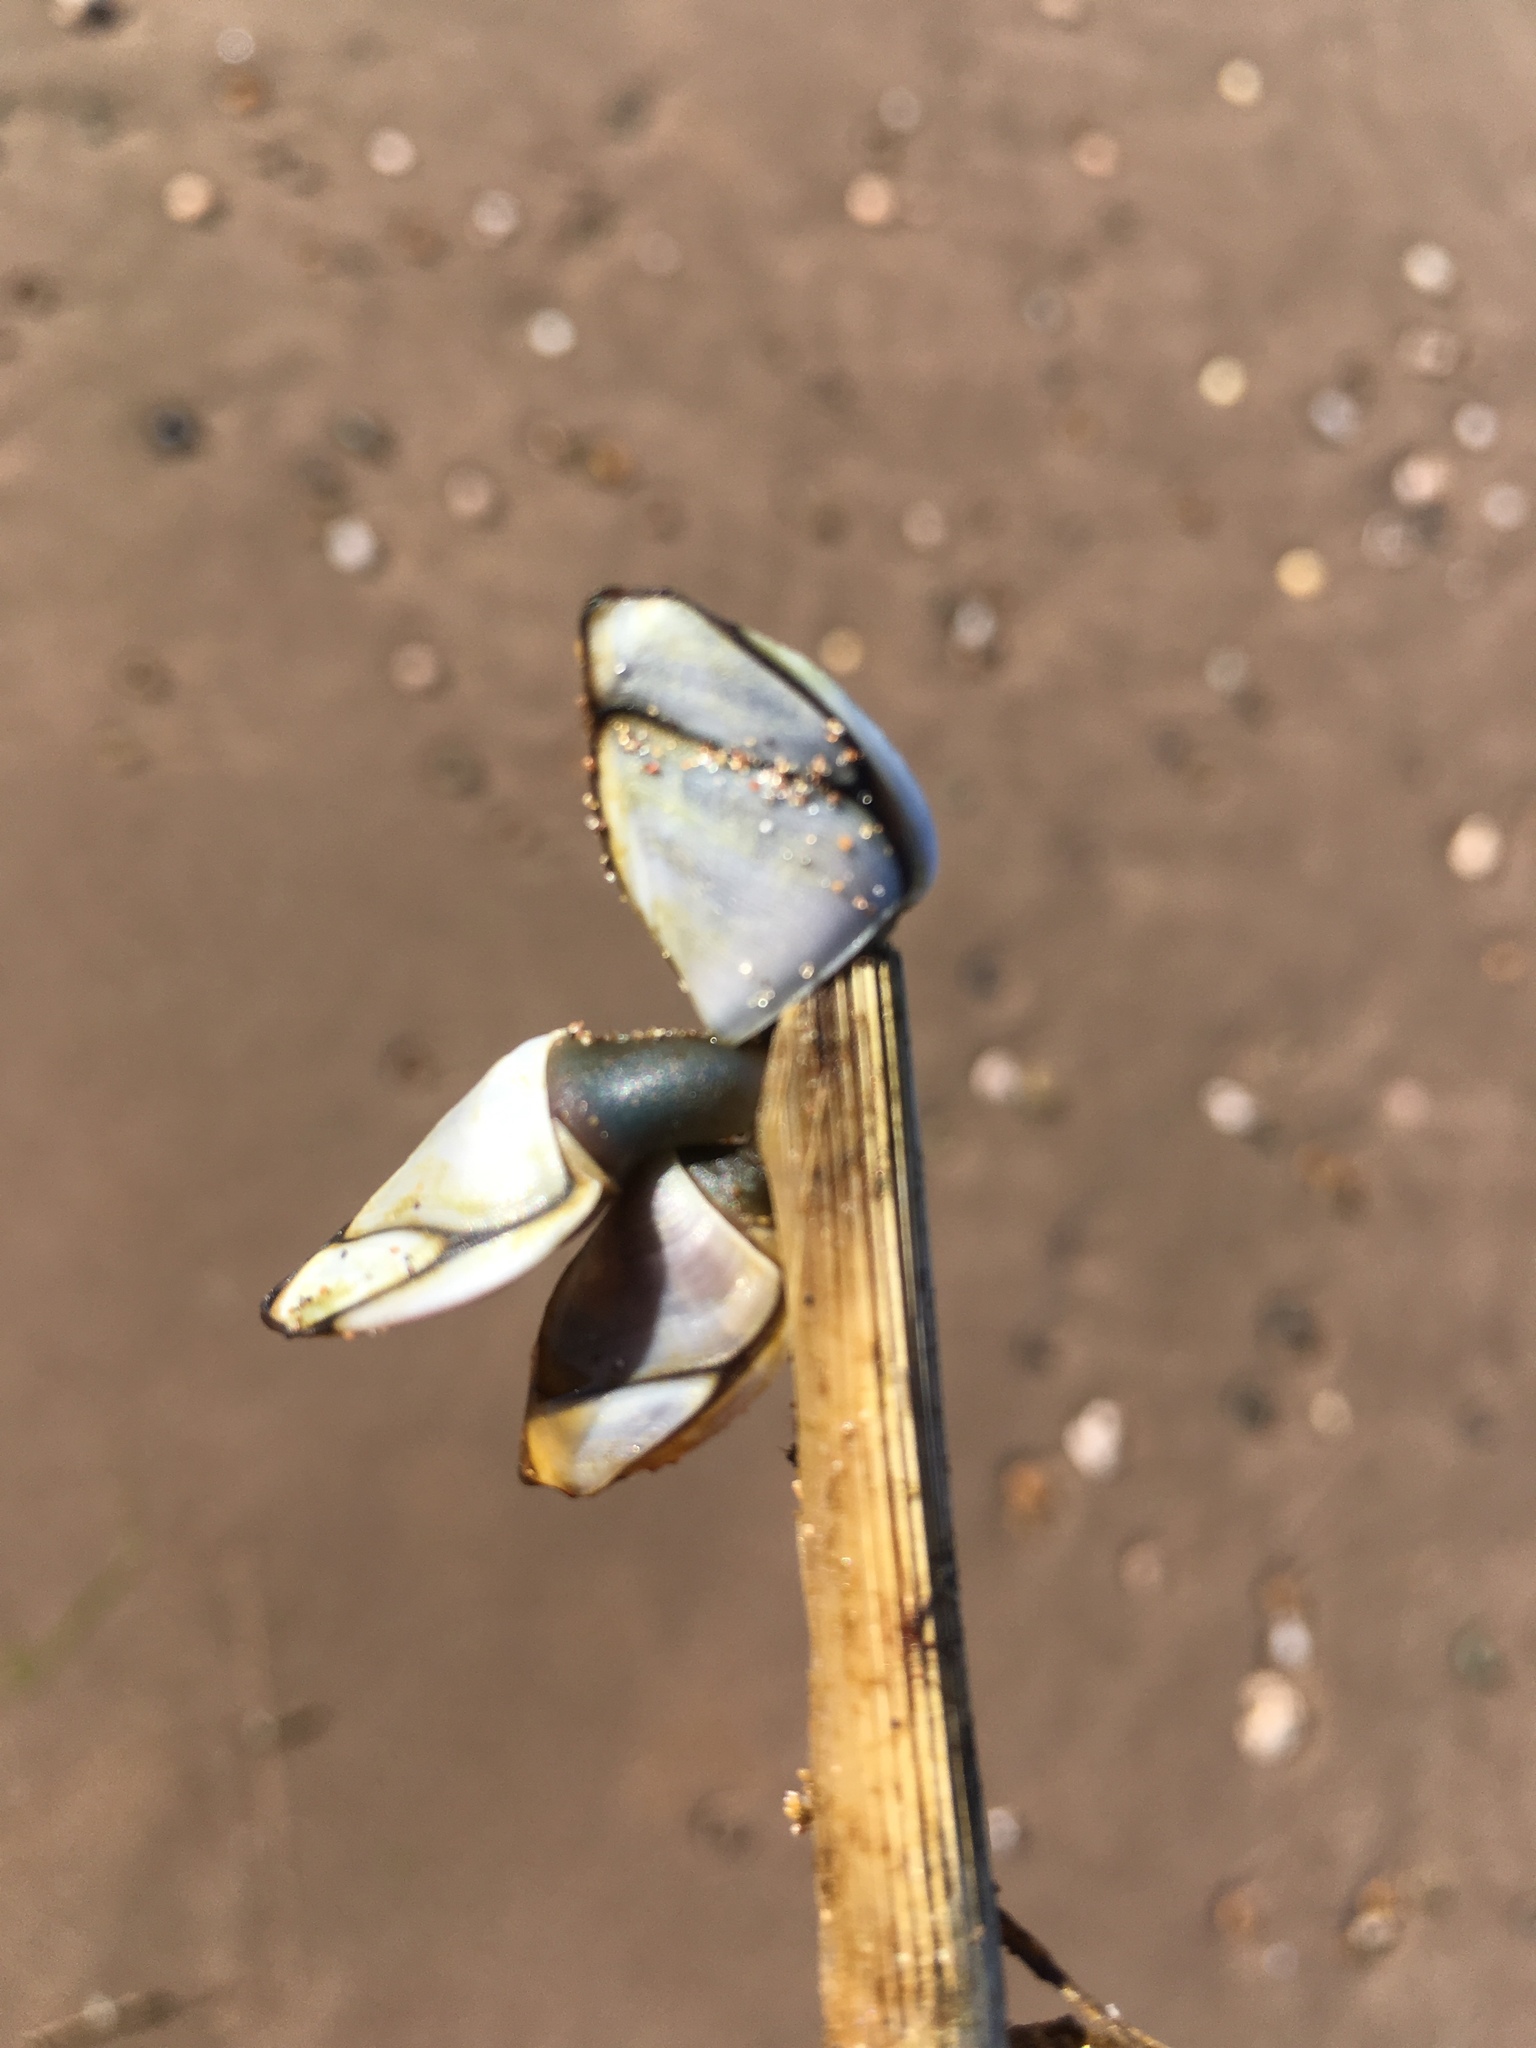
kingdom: Animalia
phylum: Arthropoda
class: Maxillopoda
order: Pedunculata
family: Lepadidae
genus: Lepas
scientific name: Lepas anatifera
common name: Common goose barnacle
